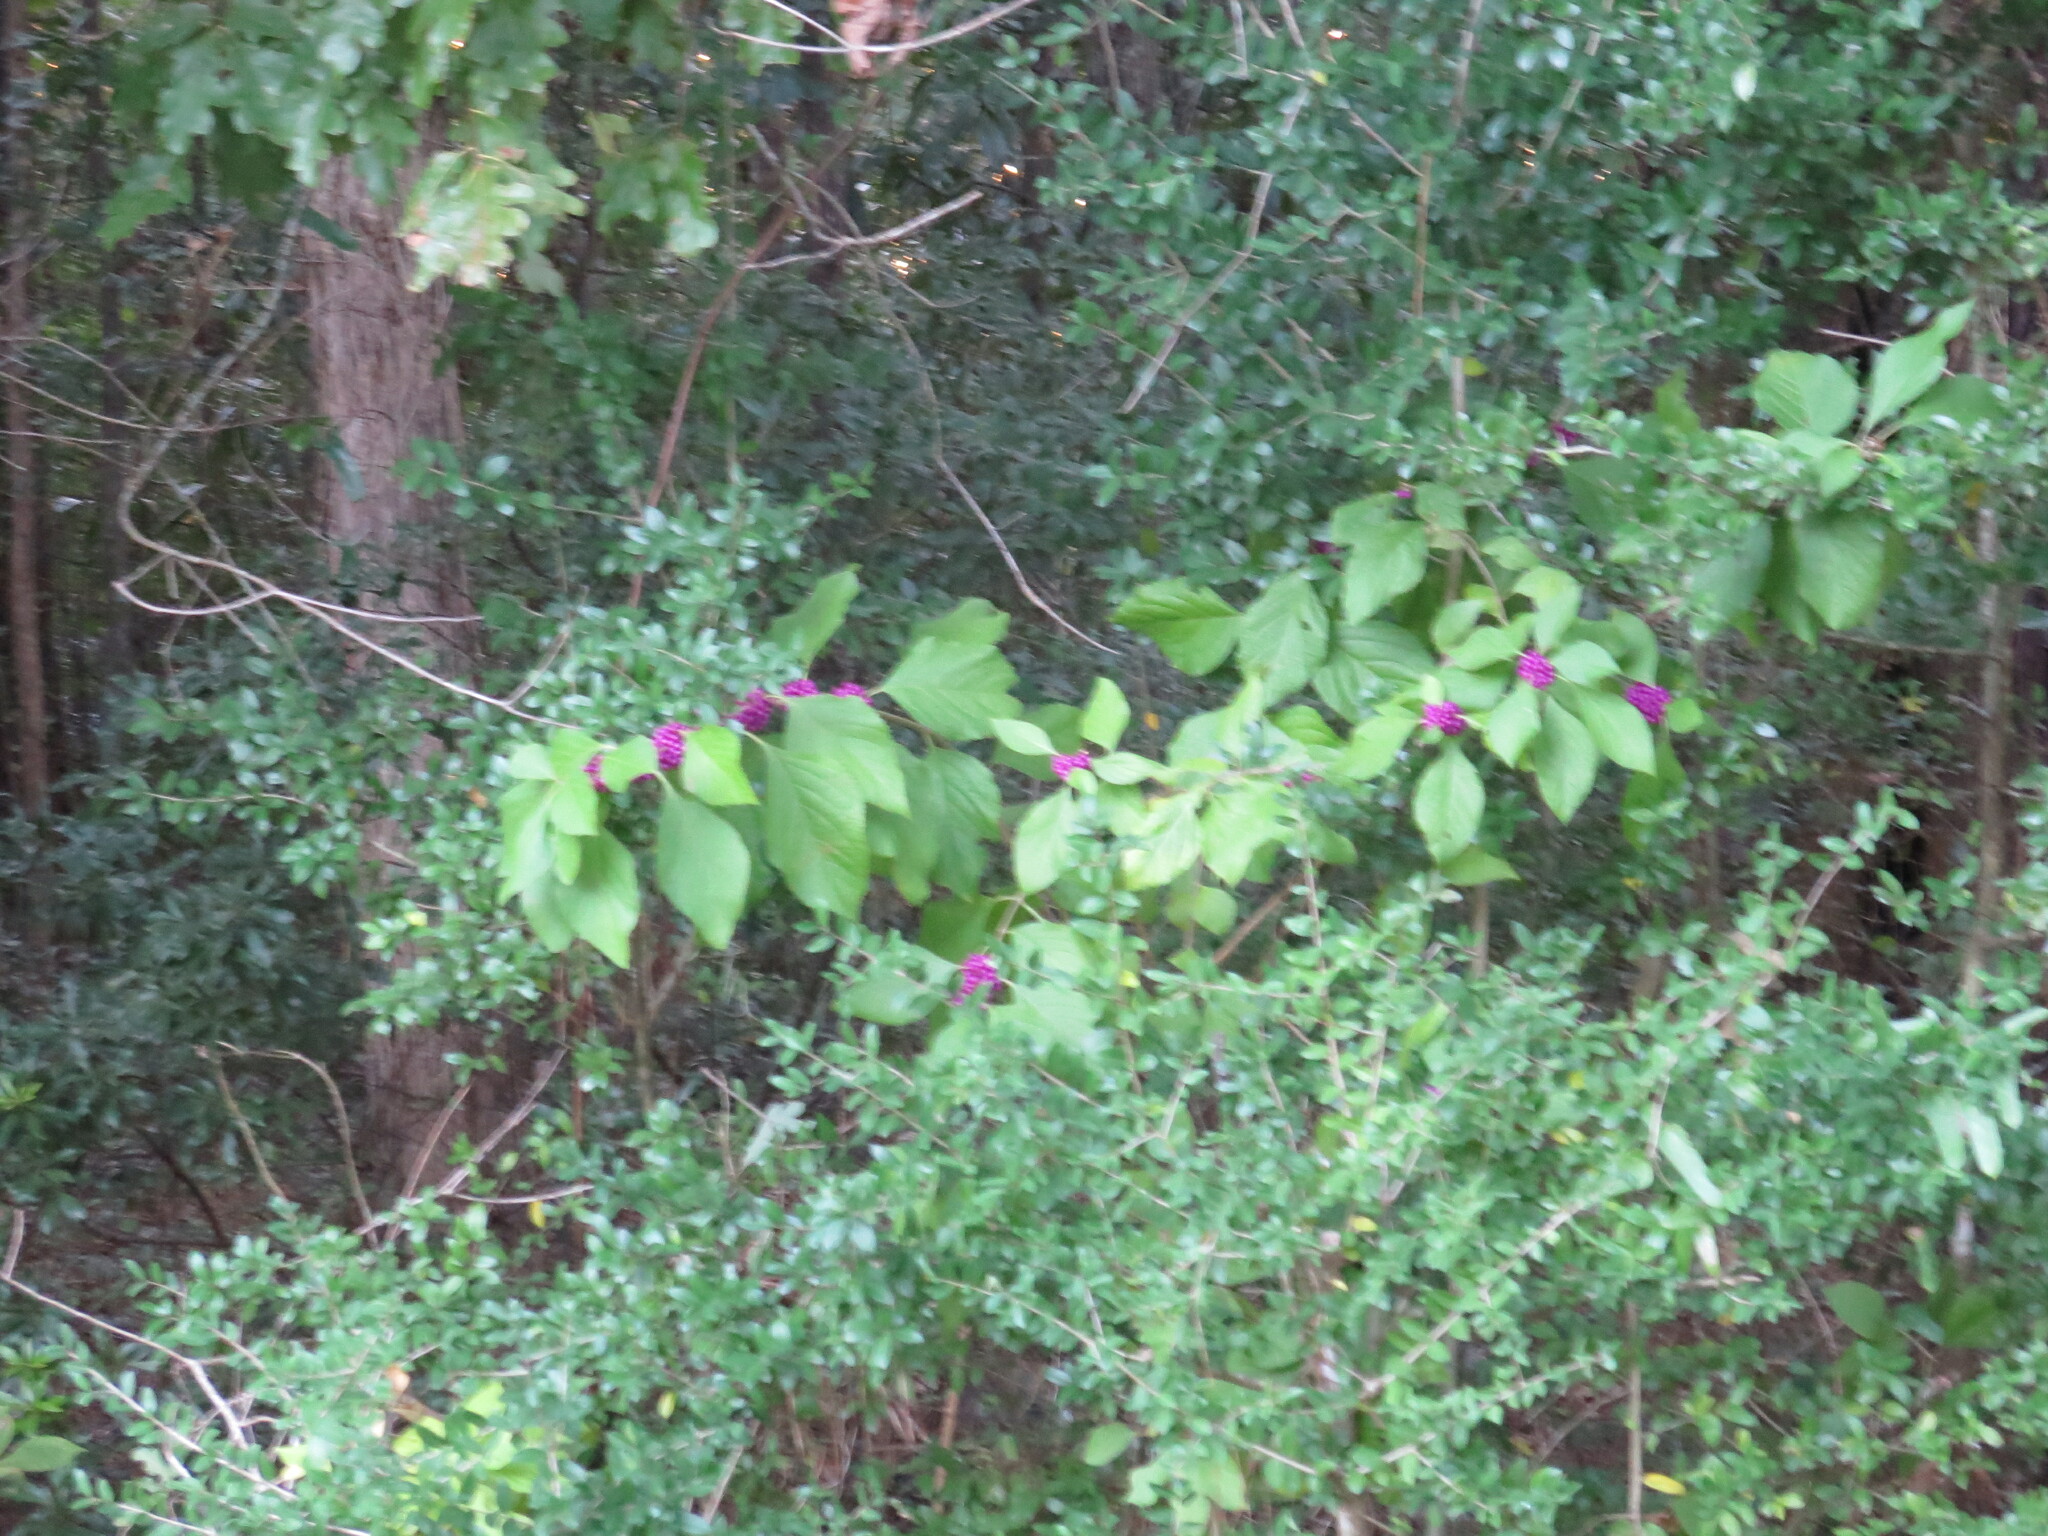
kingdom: Plantae
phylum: Tracheophyta
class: Magnoliopsida
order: Lamiales
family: Lamiaceae
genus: Callicarpa
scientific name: Callicarpa americana
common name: American beautyberry
